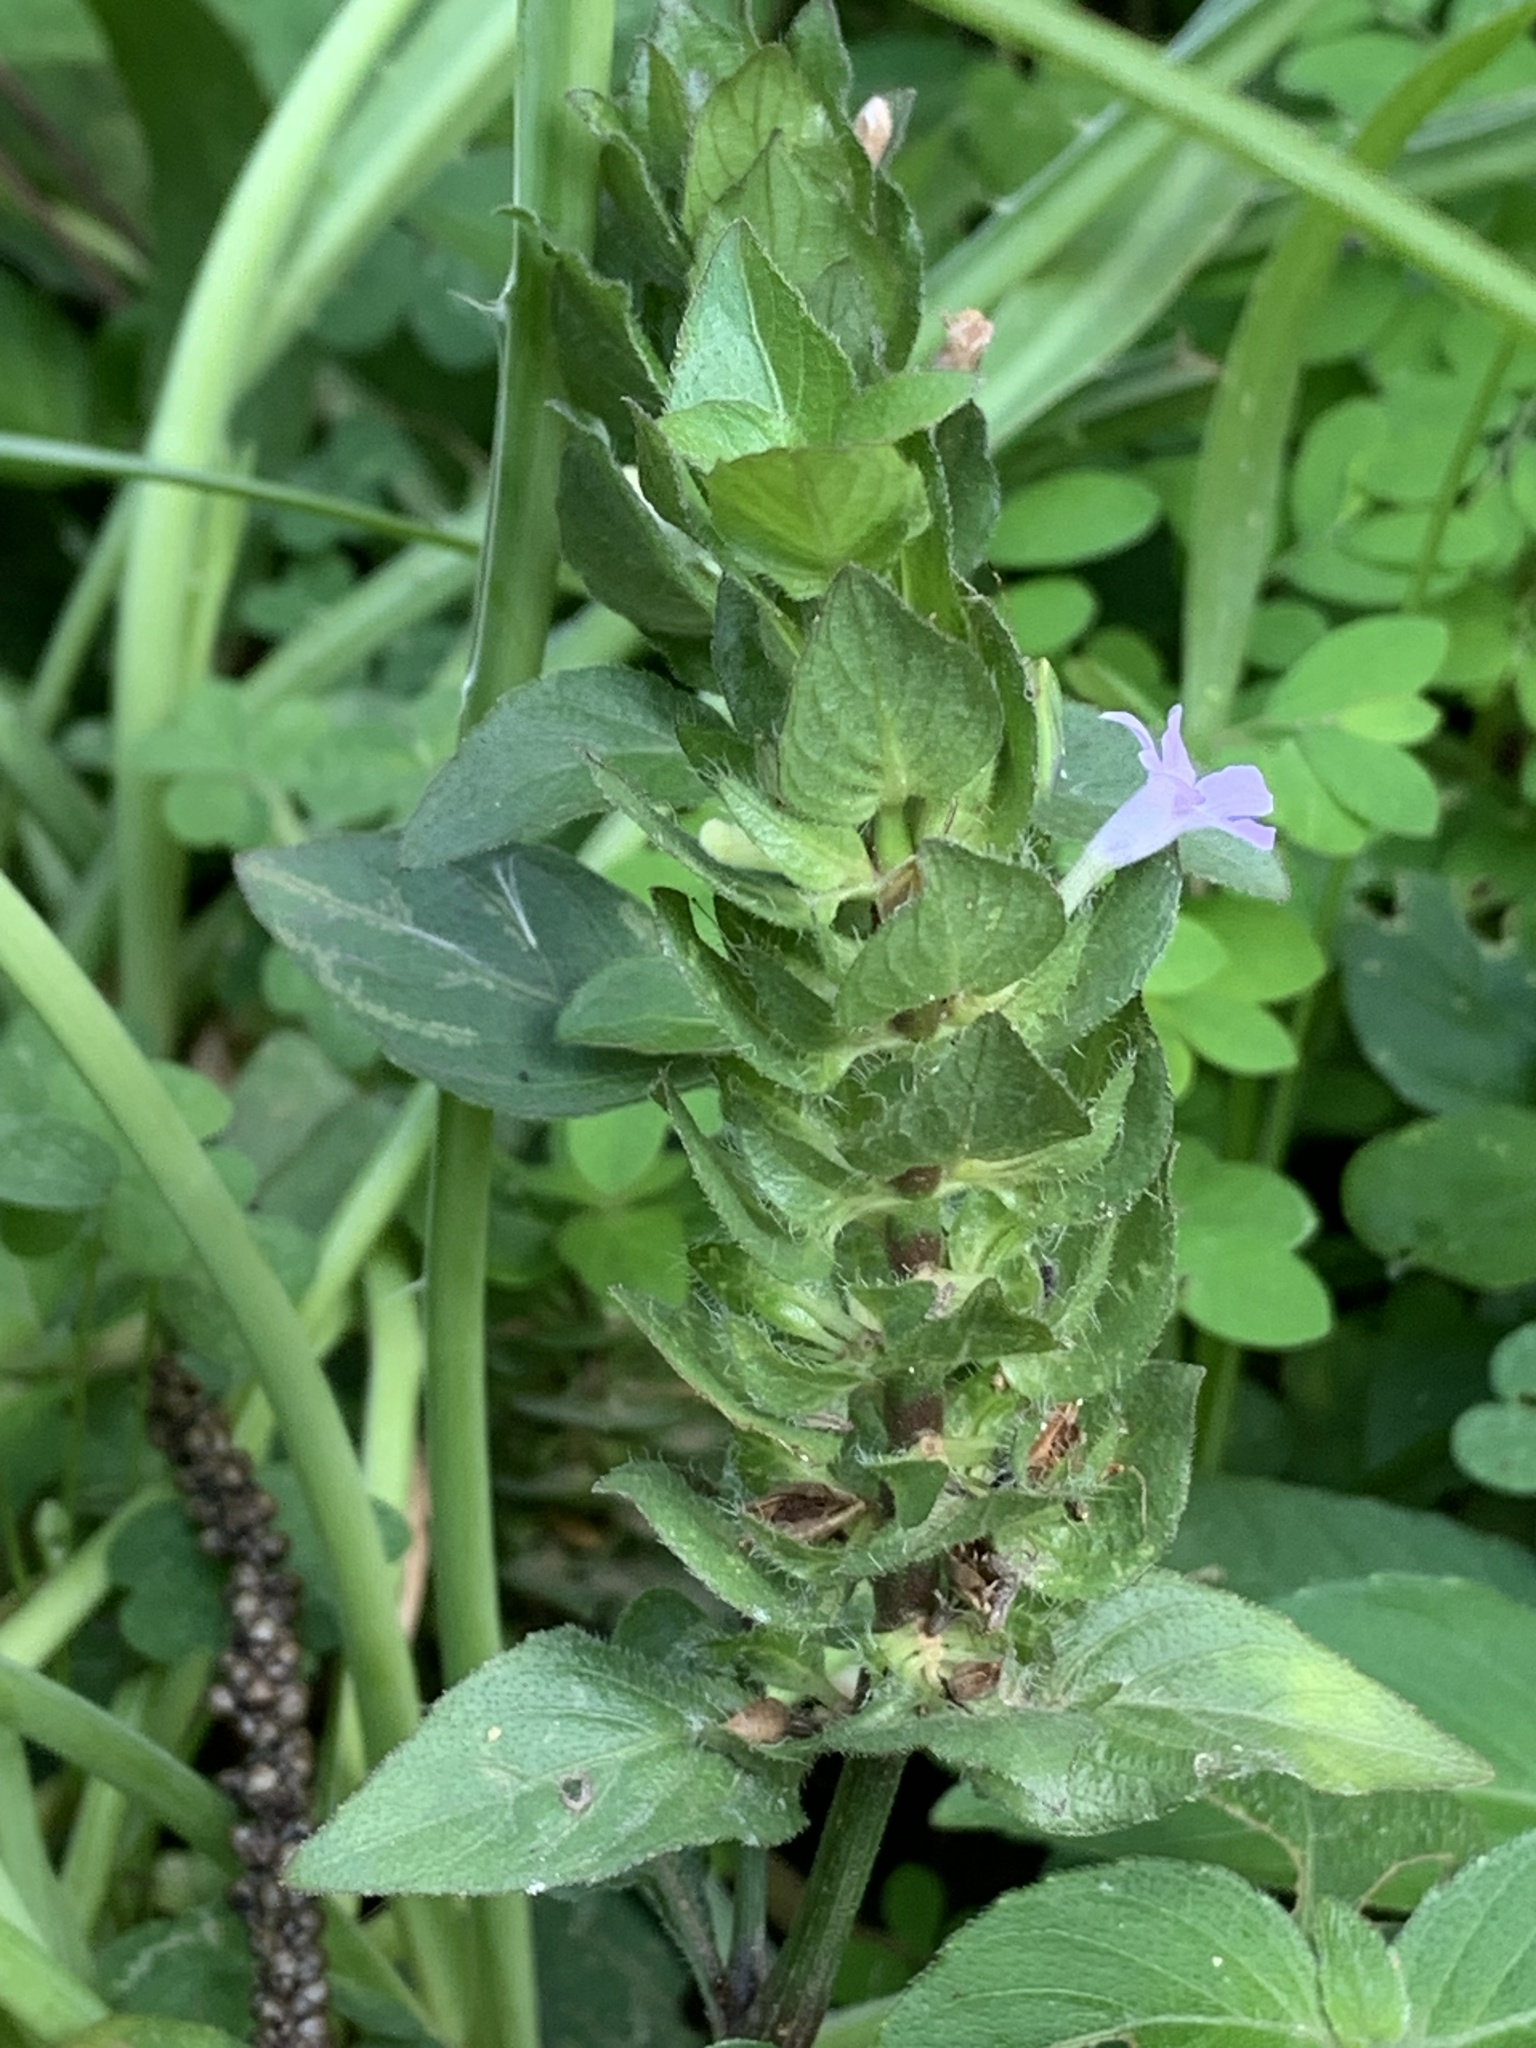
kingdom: Plantae
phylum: Tracheophyta
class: Magnoliopsida
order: Lamiales
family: Acanthaceae
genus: Ruellia
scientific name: Ruellia blechum
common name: Browne's blechum
